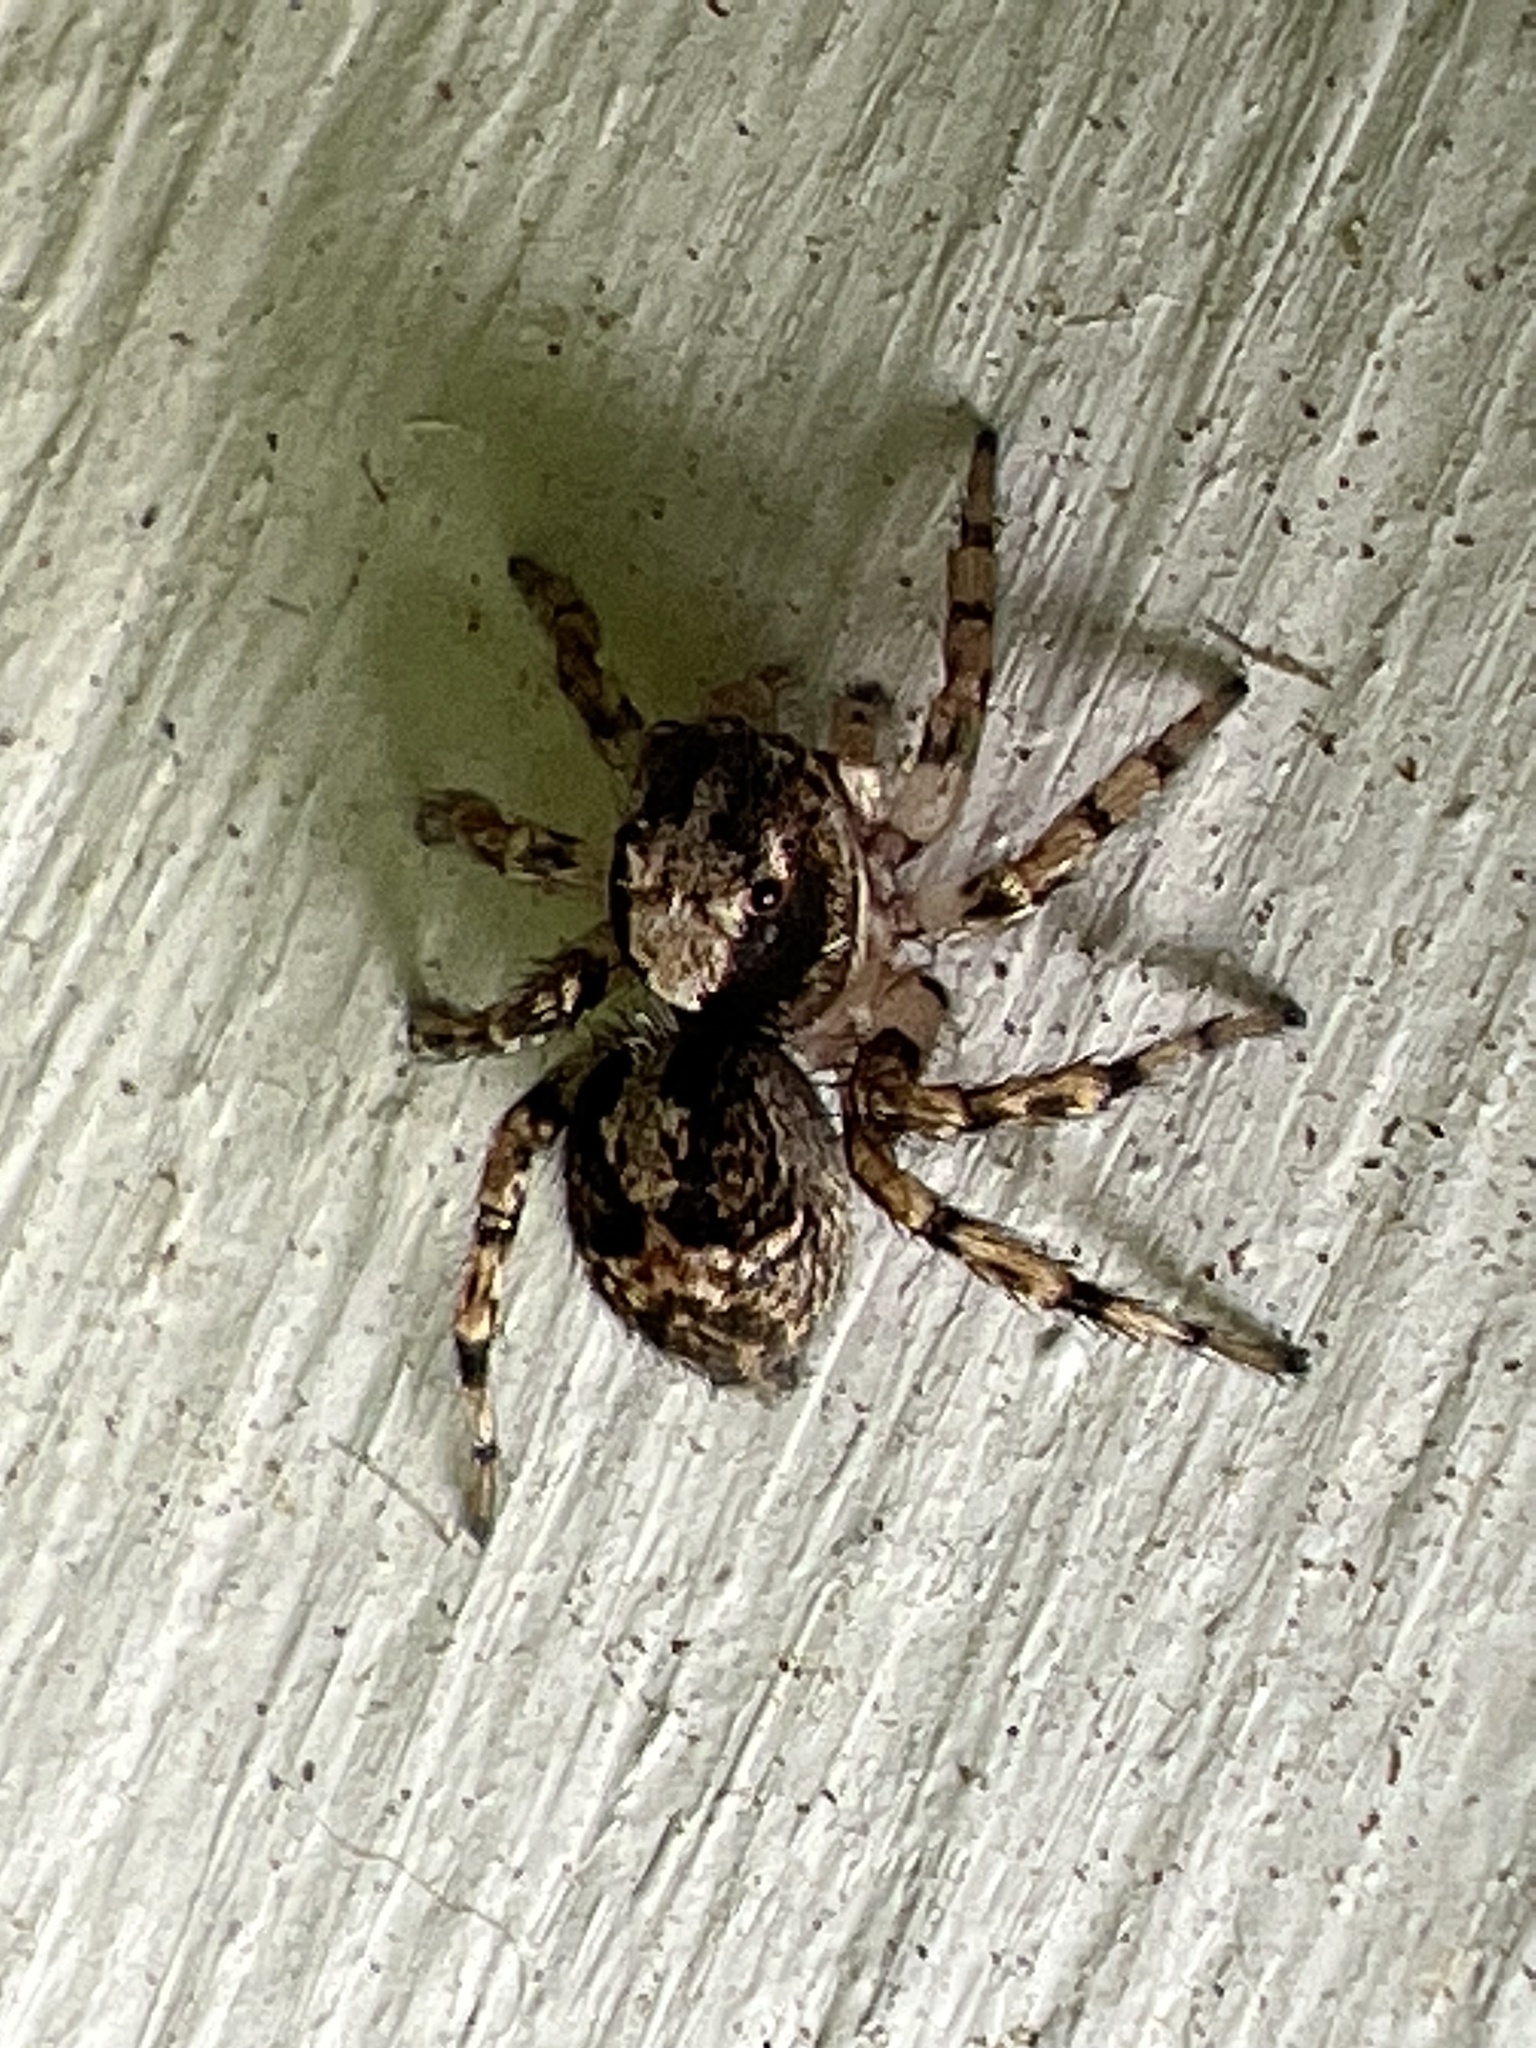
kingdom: Animalia
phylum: Arthropoda
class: Arachnida
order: Araneae
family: Salticidae
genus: Naphrys
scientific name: Naphrys pulex
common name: Flea jumping spider
